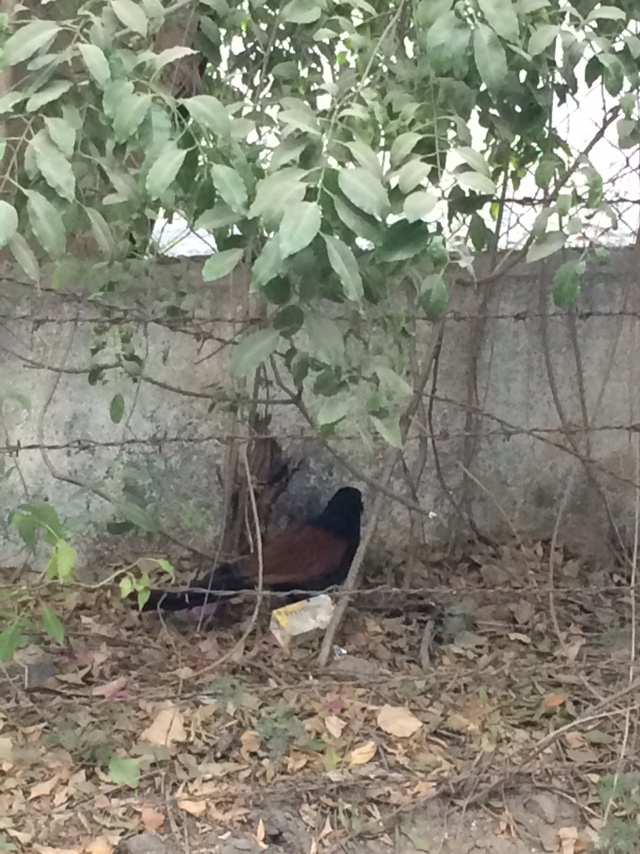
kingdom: Animalia
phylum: Chordata
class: Aves
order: Cuculiformes
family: Cuculidae
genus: Centropus
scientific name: Centropus sinensis
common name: Greater coucal
